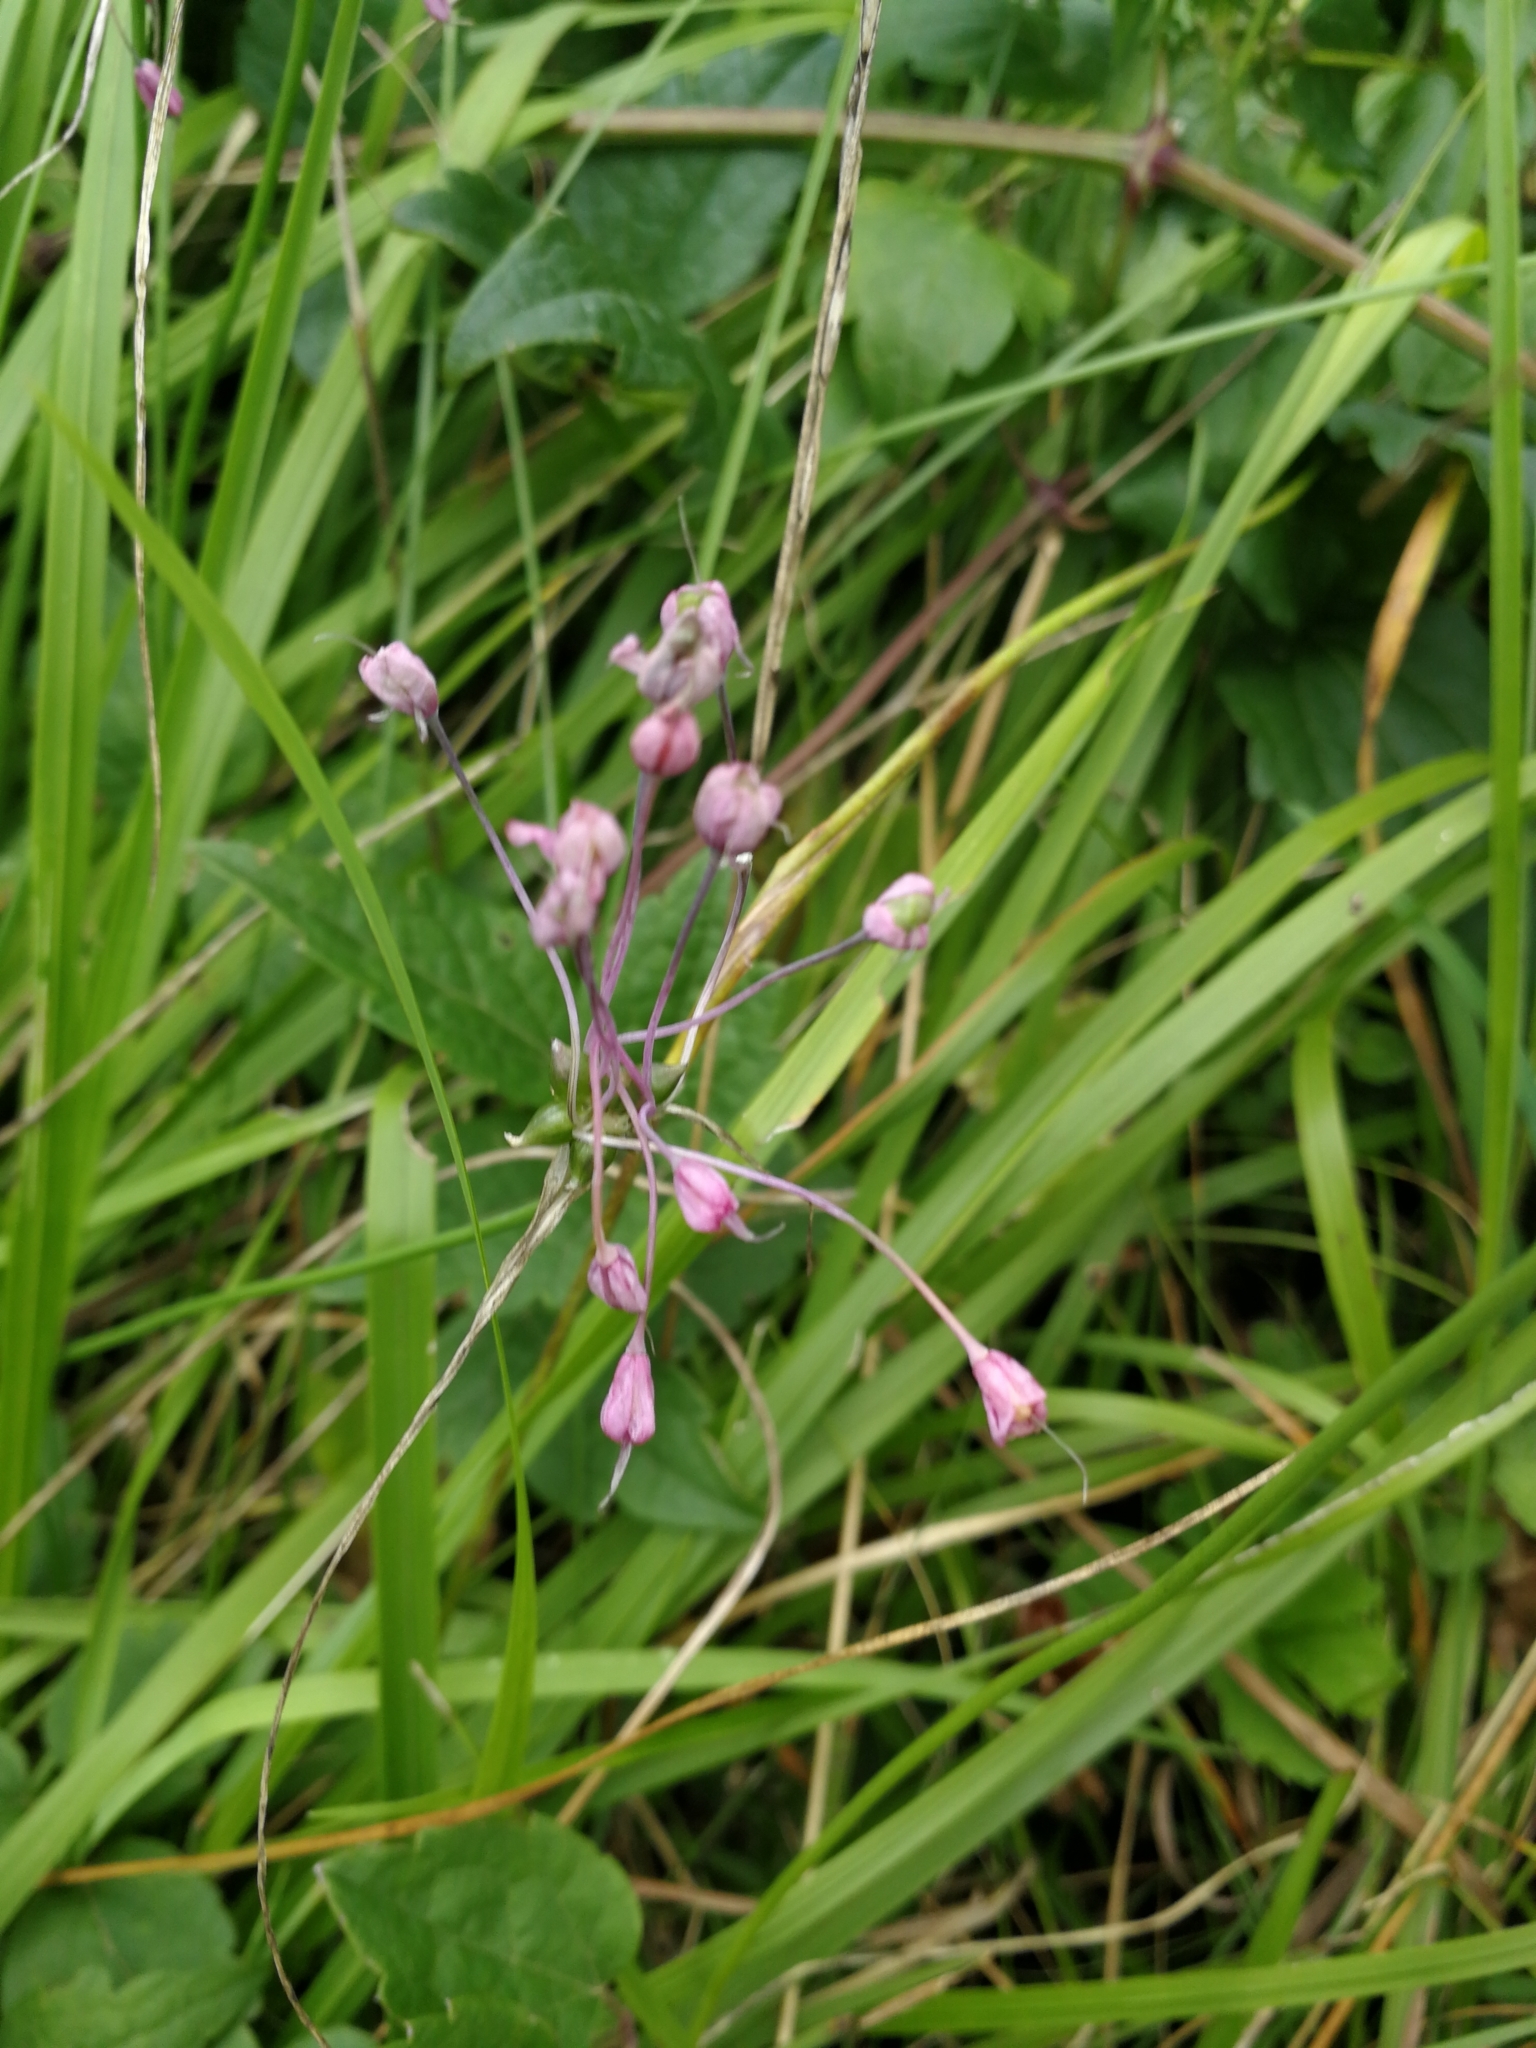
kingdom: Plantae
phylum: Tracheophyta
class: Liliopsida
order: Asparagales
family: Amaryllidaceae
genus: Allium
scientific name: Allium carinatum
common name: Keeled garlic
